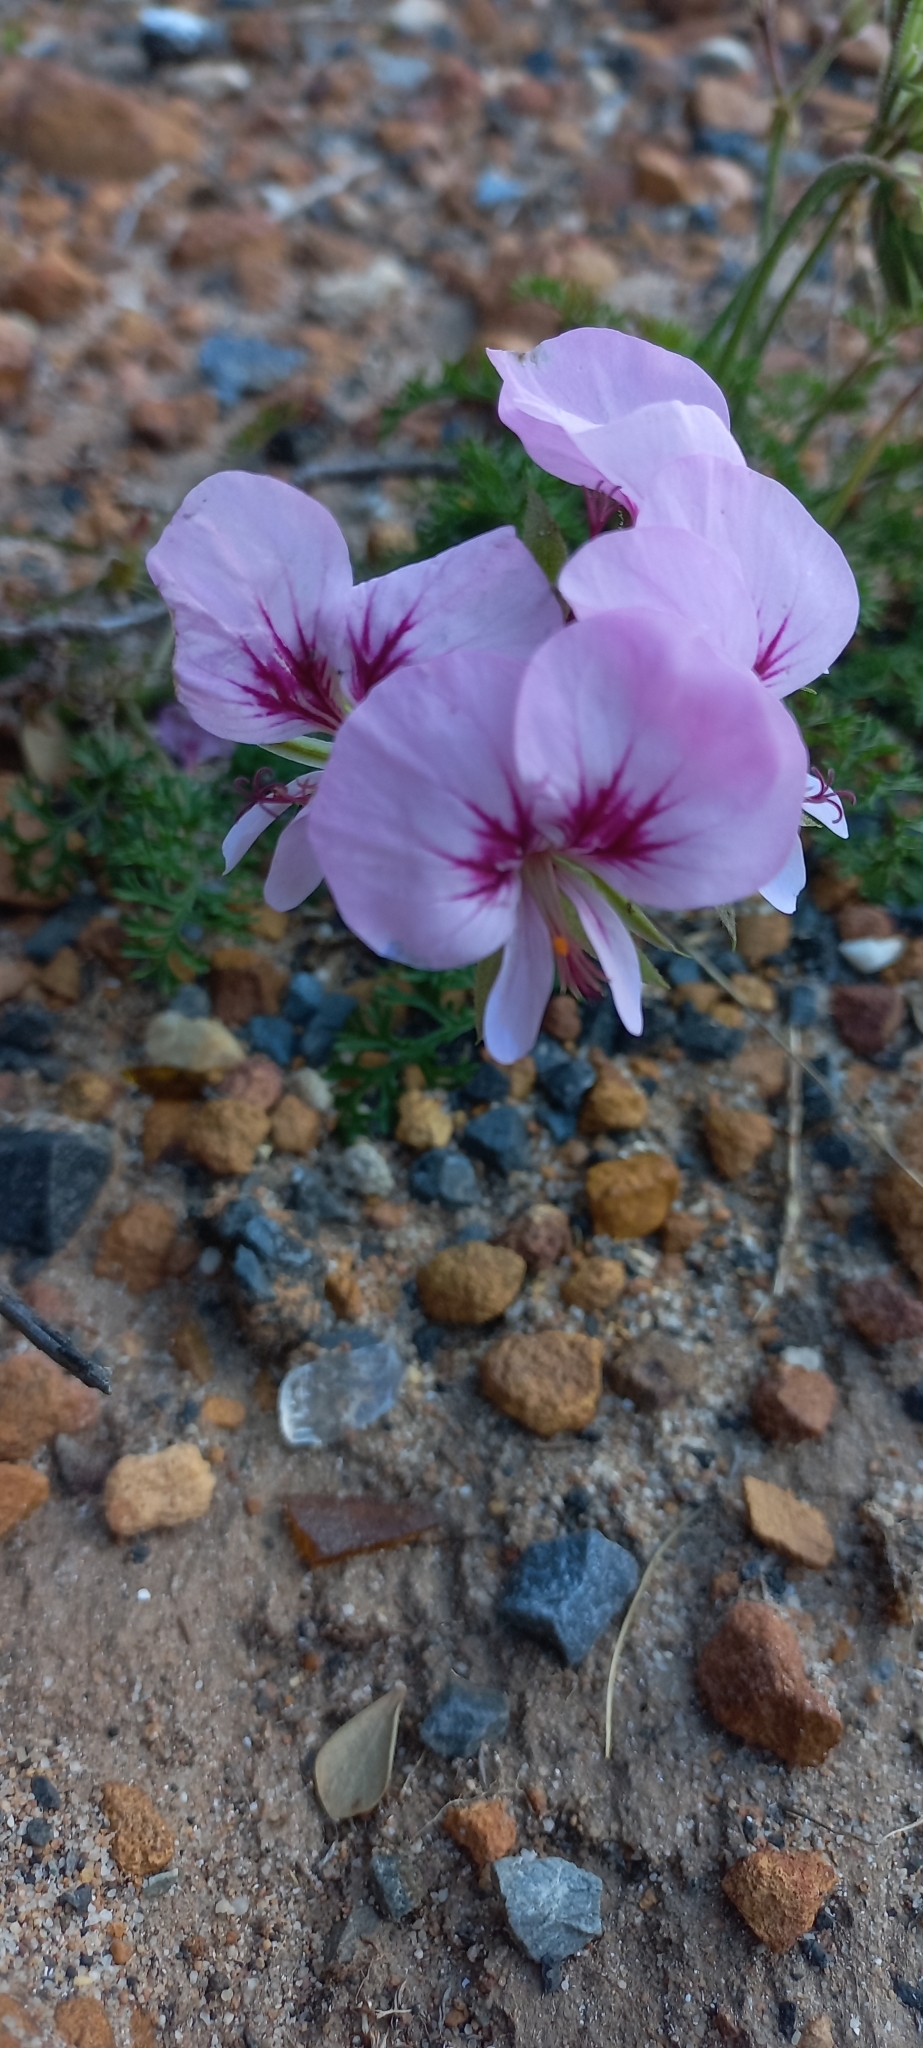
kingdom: Plantae
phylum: Tracheophyta
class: Magnoliopsida
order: Geraniales
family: Geraniaceae
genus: Pelargonium
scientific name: Pelargonium longicaule
